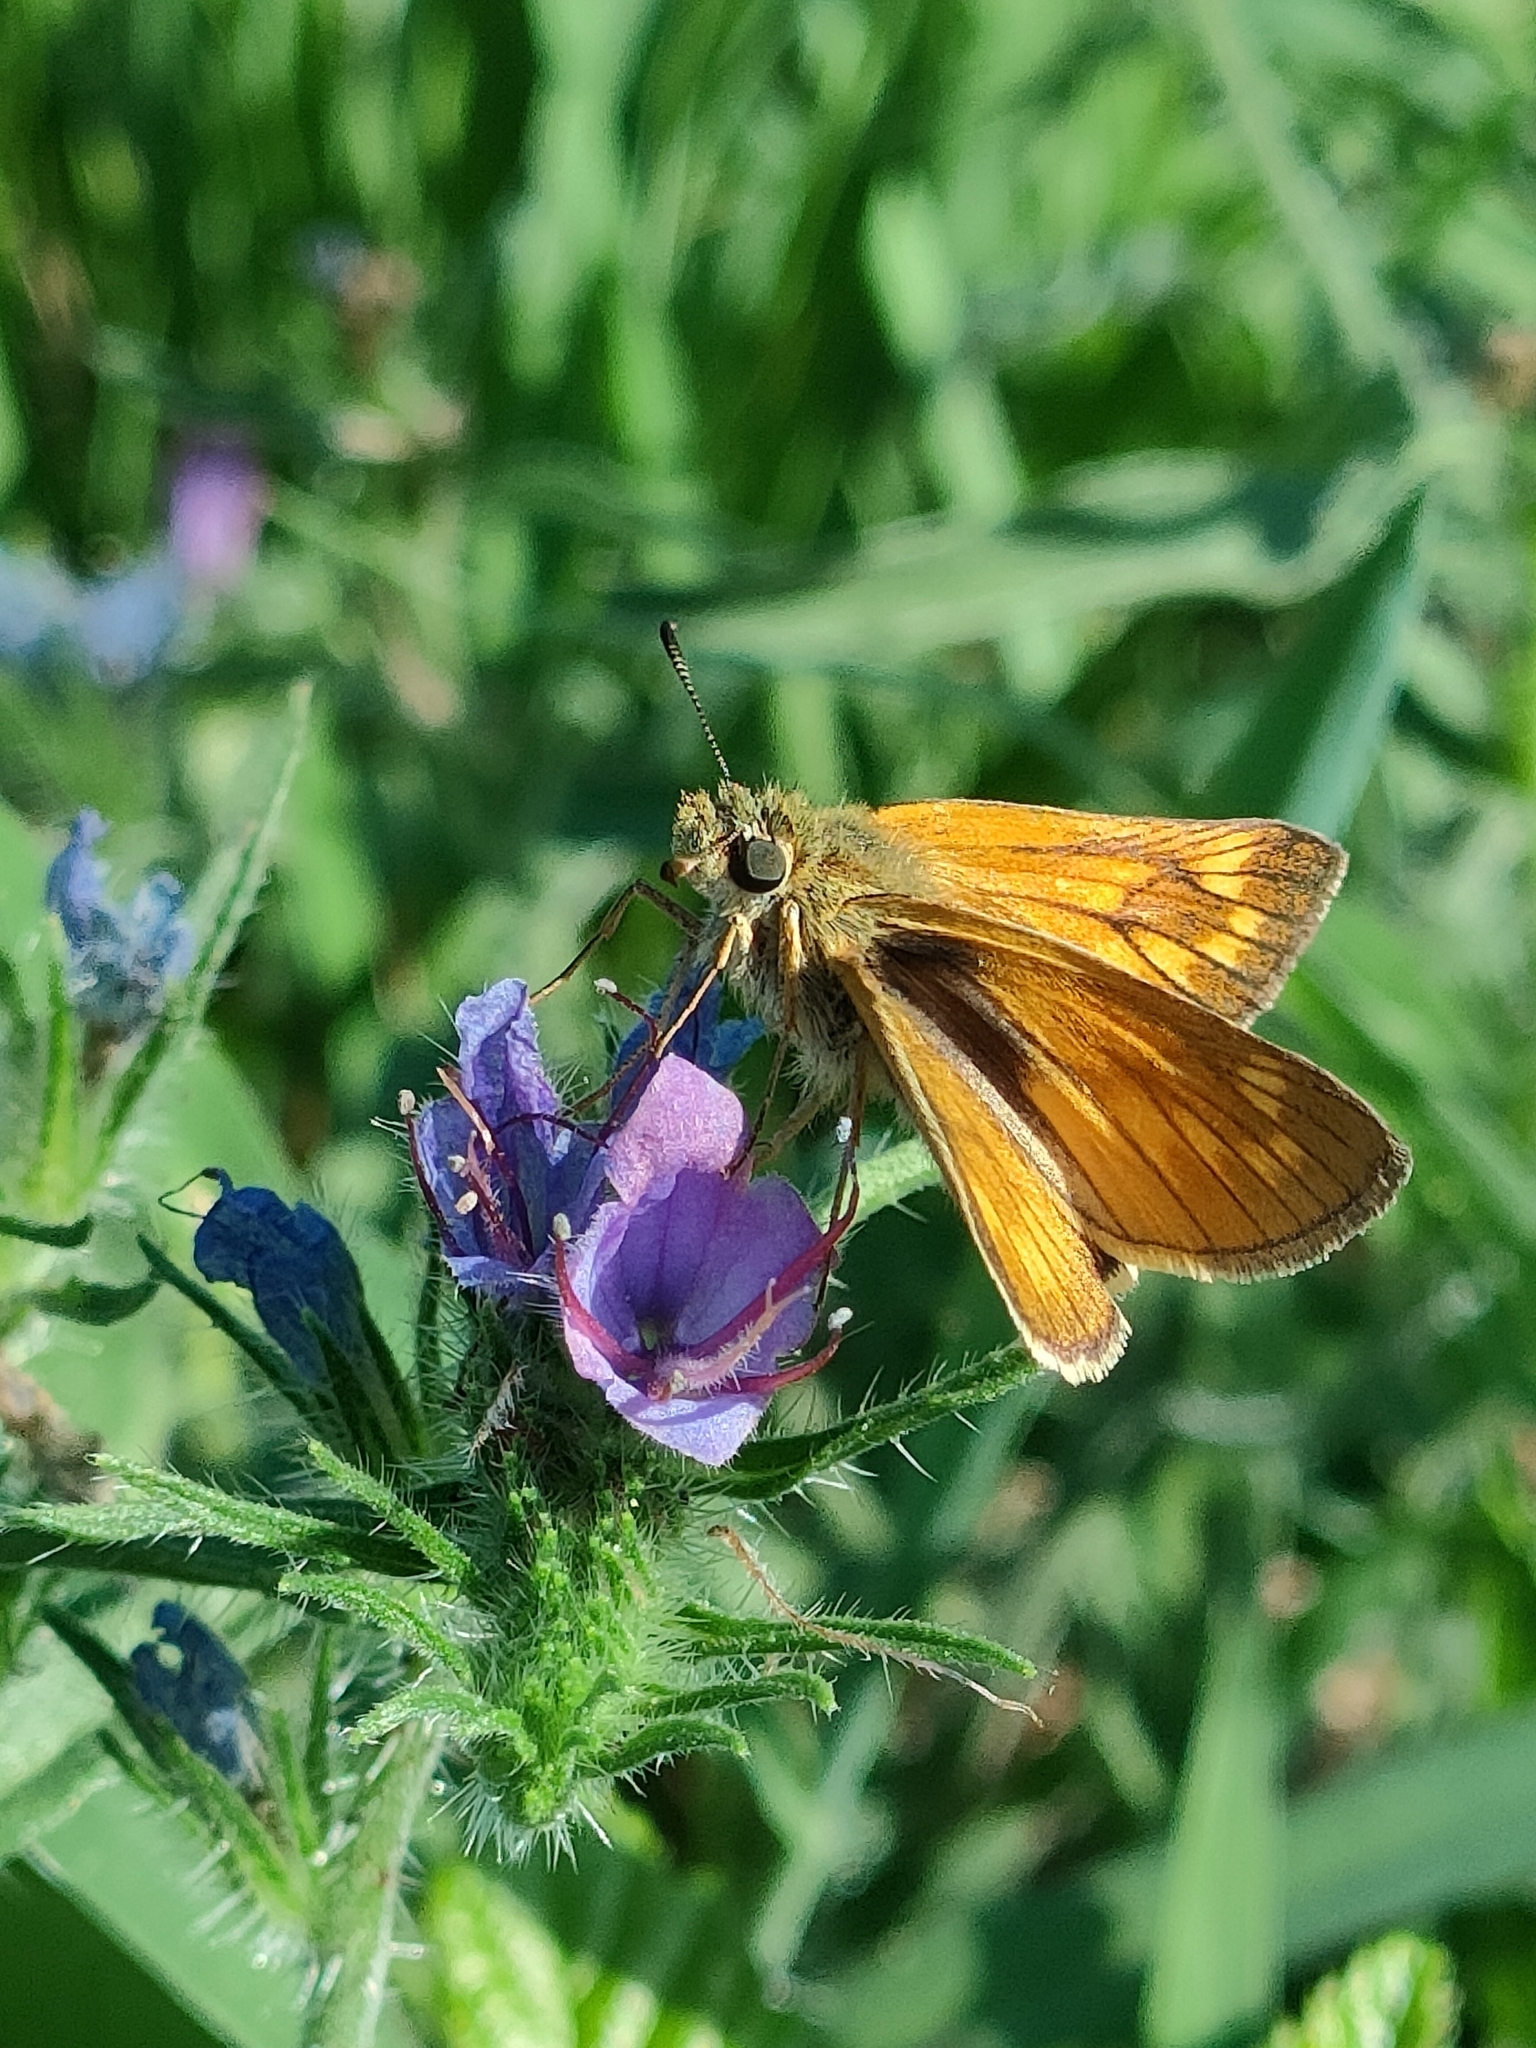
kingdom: Animalia
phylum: Arthropoda
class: Insecta
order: Lepidoptera
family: Hesperiidae
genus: Ochlodes
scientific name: Ochlodes venata
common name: Large skipper
